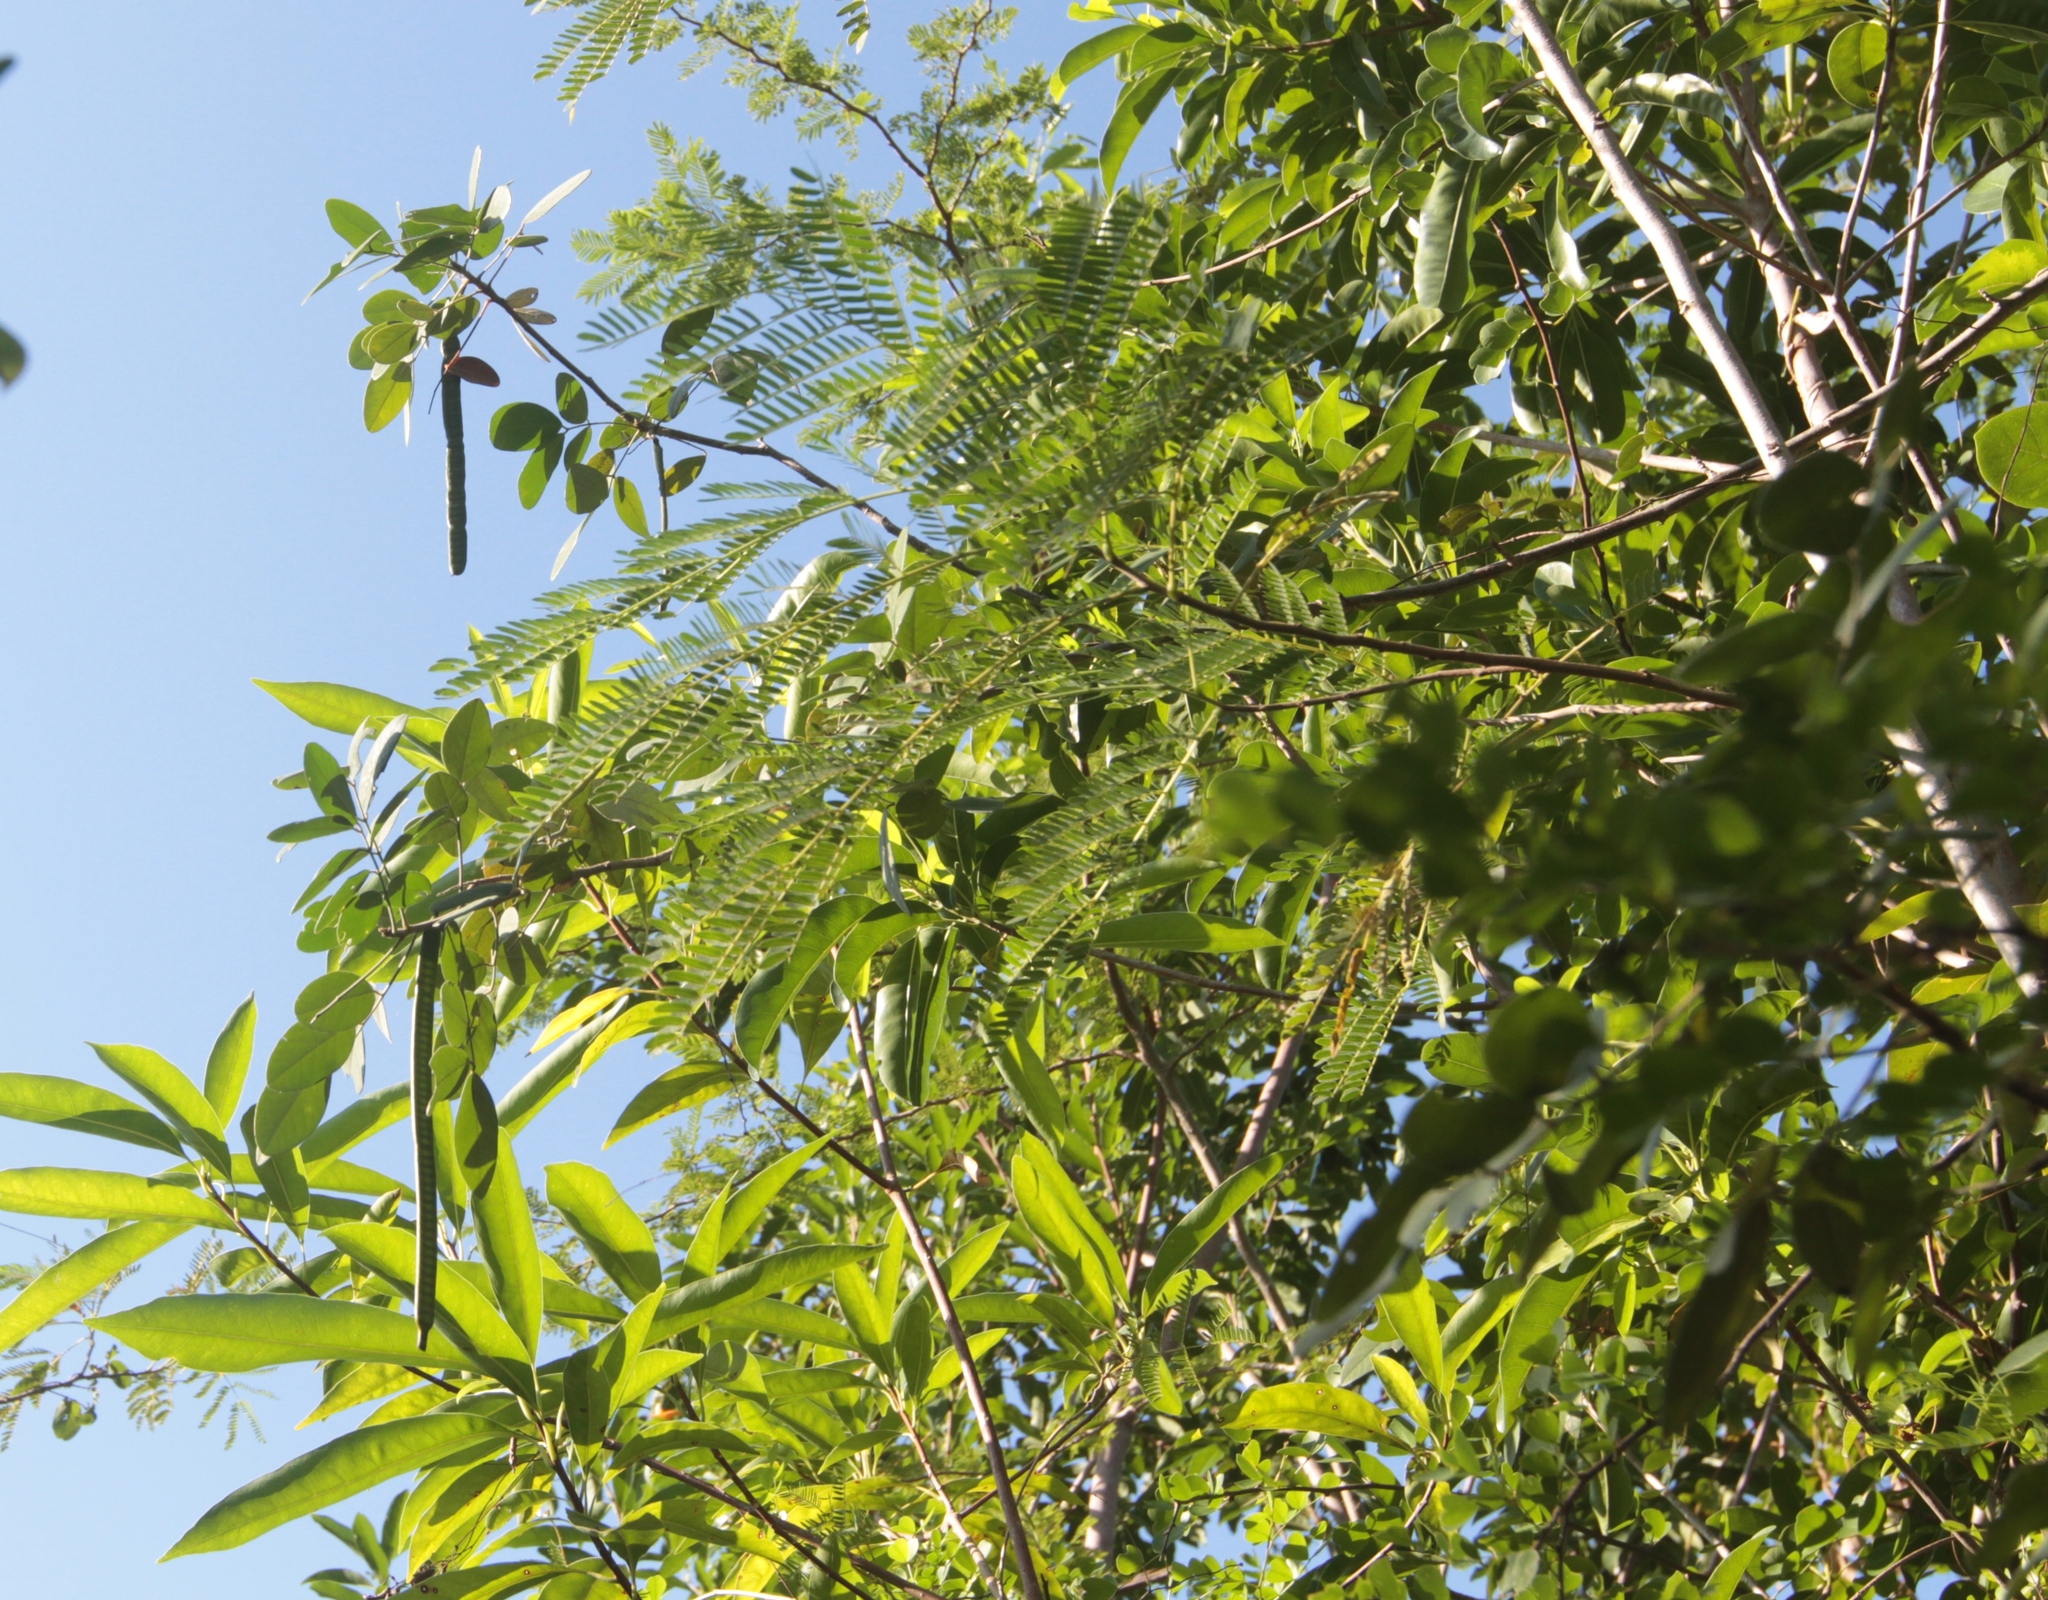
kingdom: Plantae
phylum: Tracheophyta
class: Magnoliopsida
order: Lamiales
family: Bignoniaceae
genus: Catalpa
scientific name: Catalpa macrocarpa
